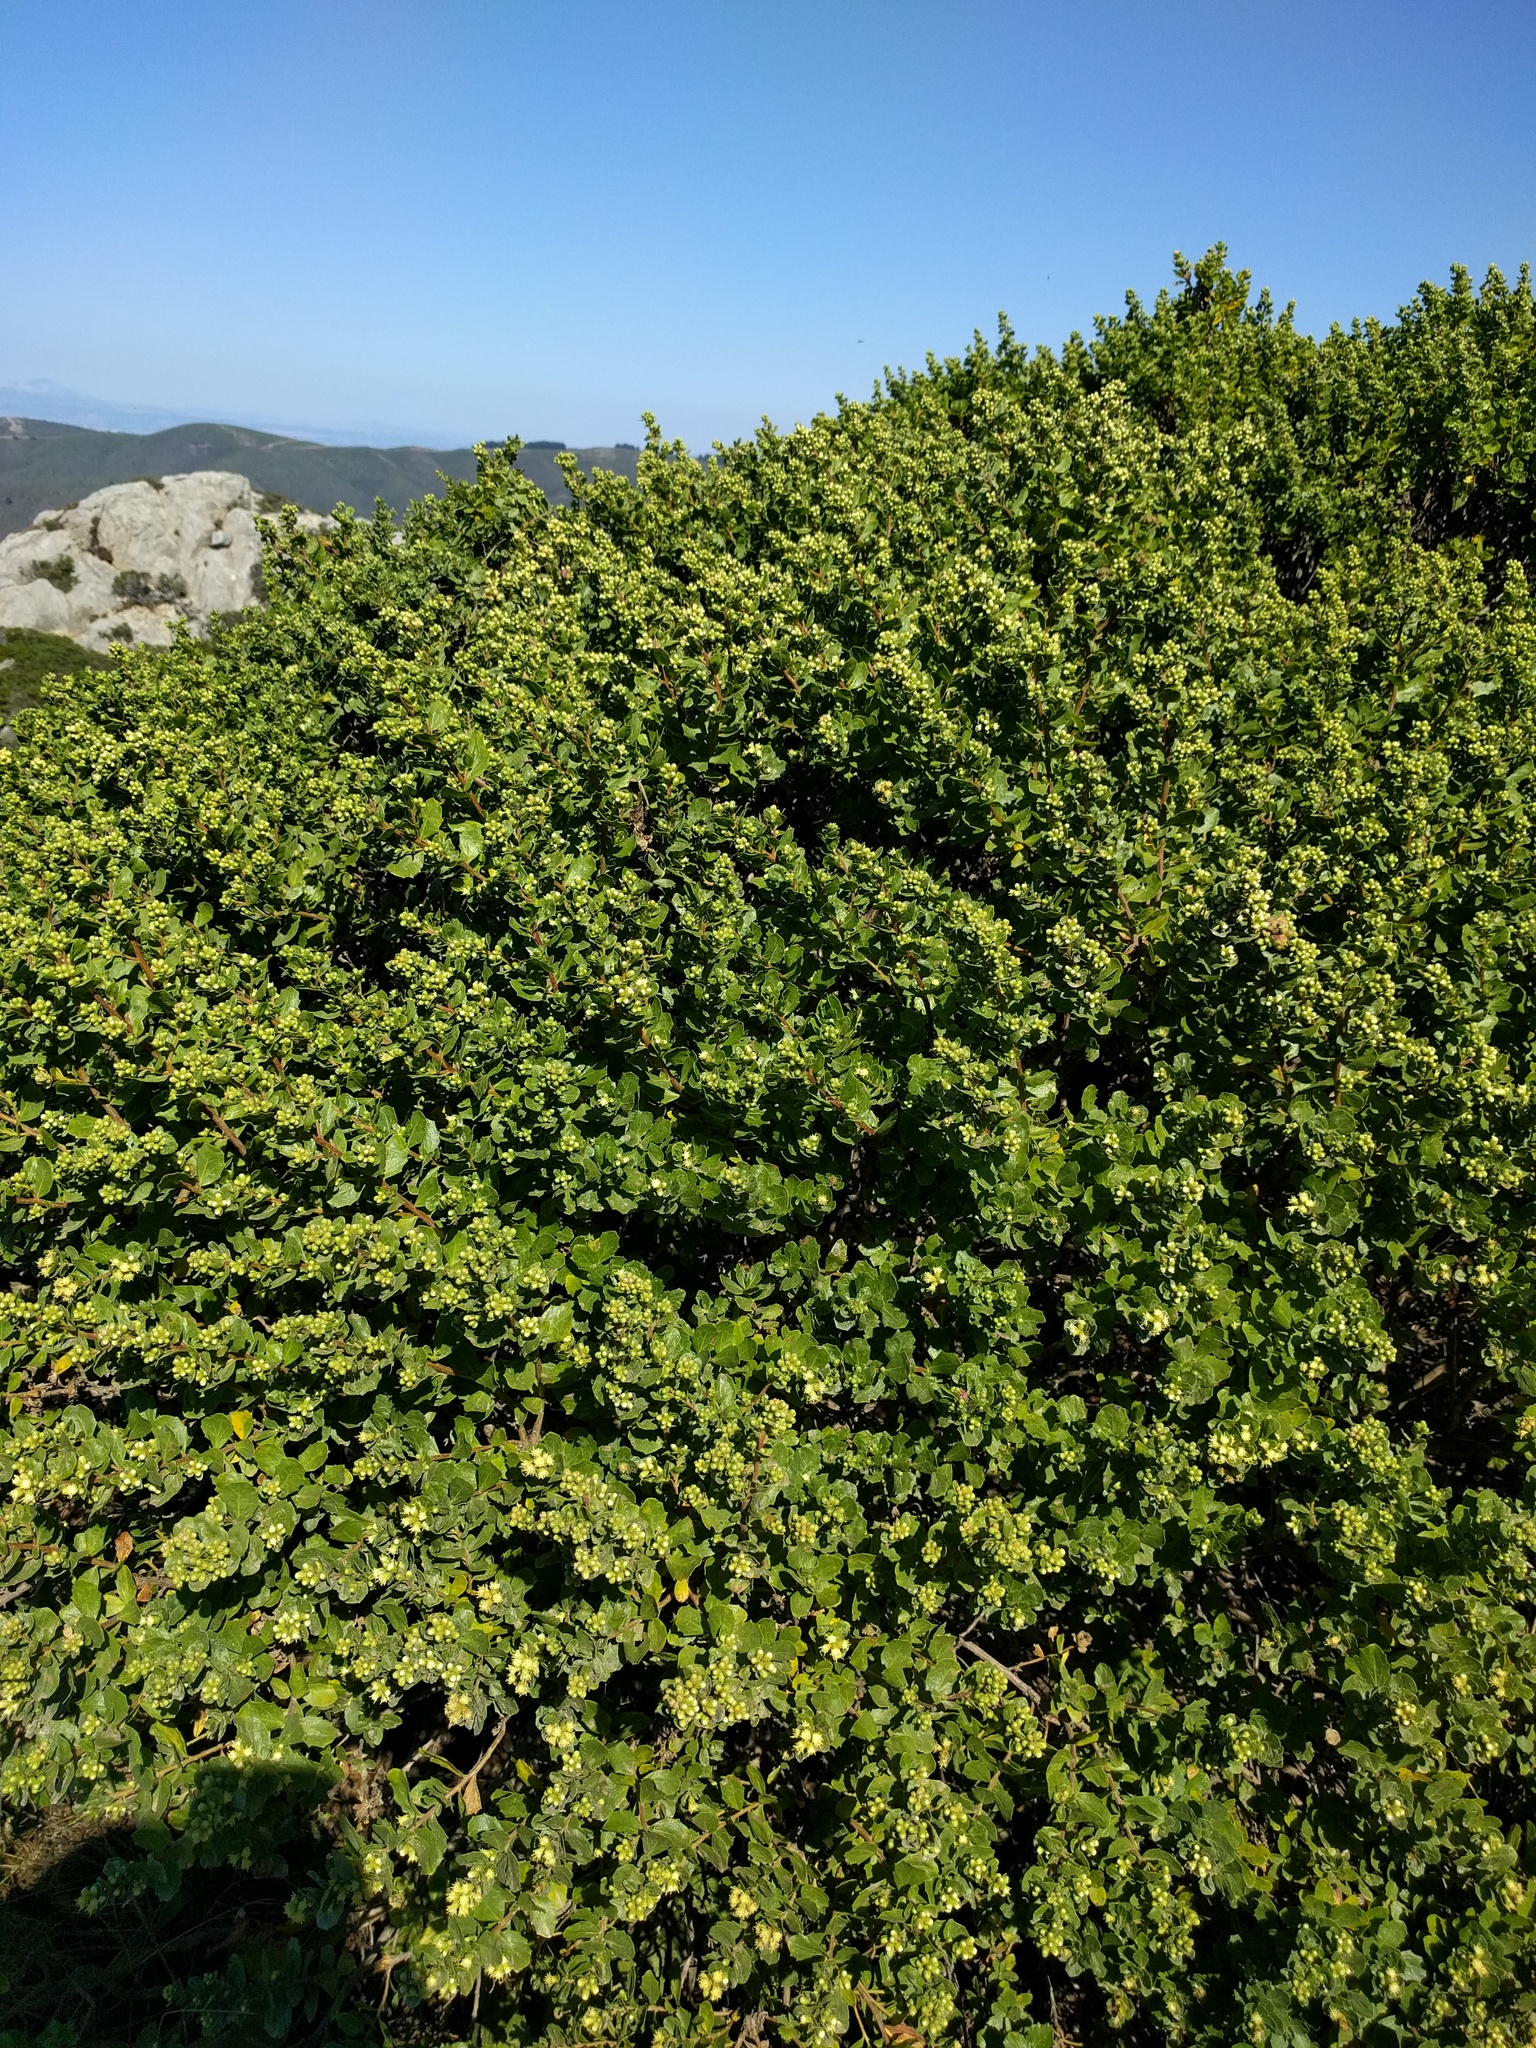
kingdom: Plantae
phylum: Tracheophyta
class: Magnoliopsida
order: Asterales
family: Asteraceae
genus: Baccharis
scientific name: Baccharis pilularis
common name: Coyotebrush
